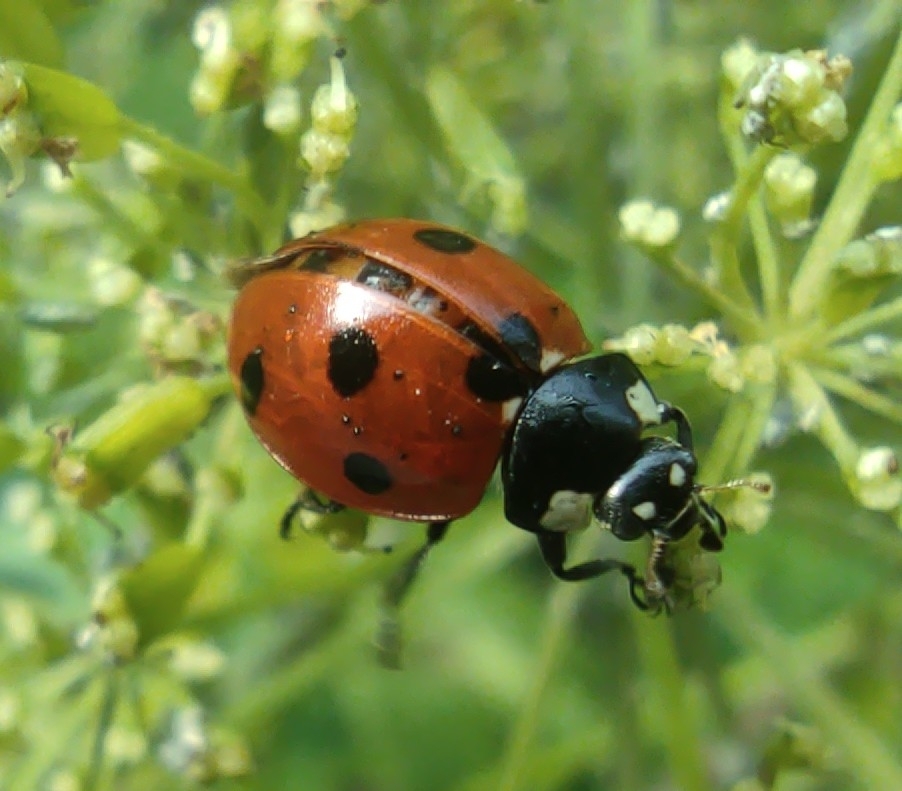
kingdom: Animalia
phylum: Arthropoda
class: Insecta
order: Coleoptera
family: Coccinellidae
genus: Coccinella
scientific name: Coccinella septempunctata
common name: Sevenspotted lady beetle
